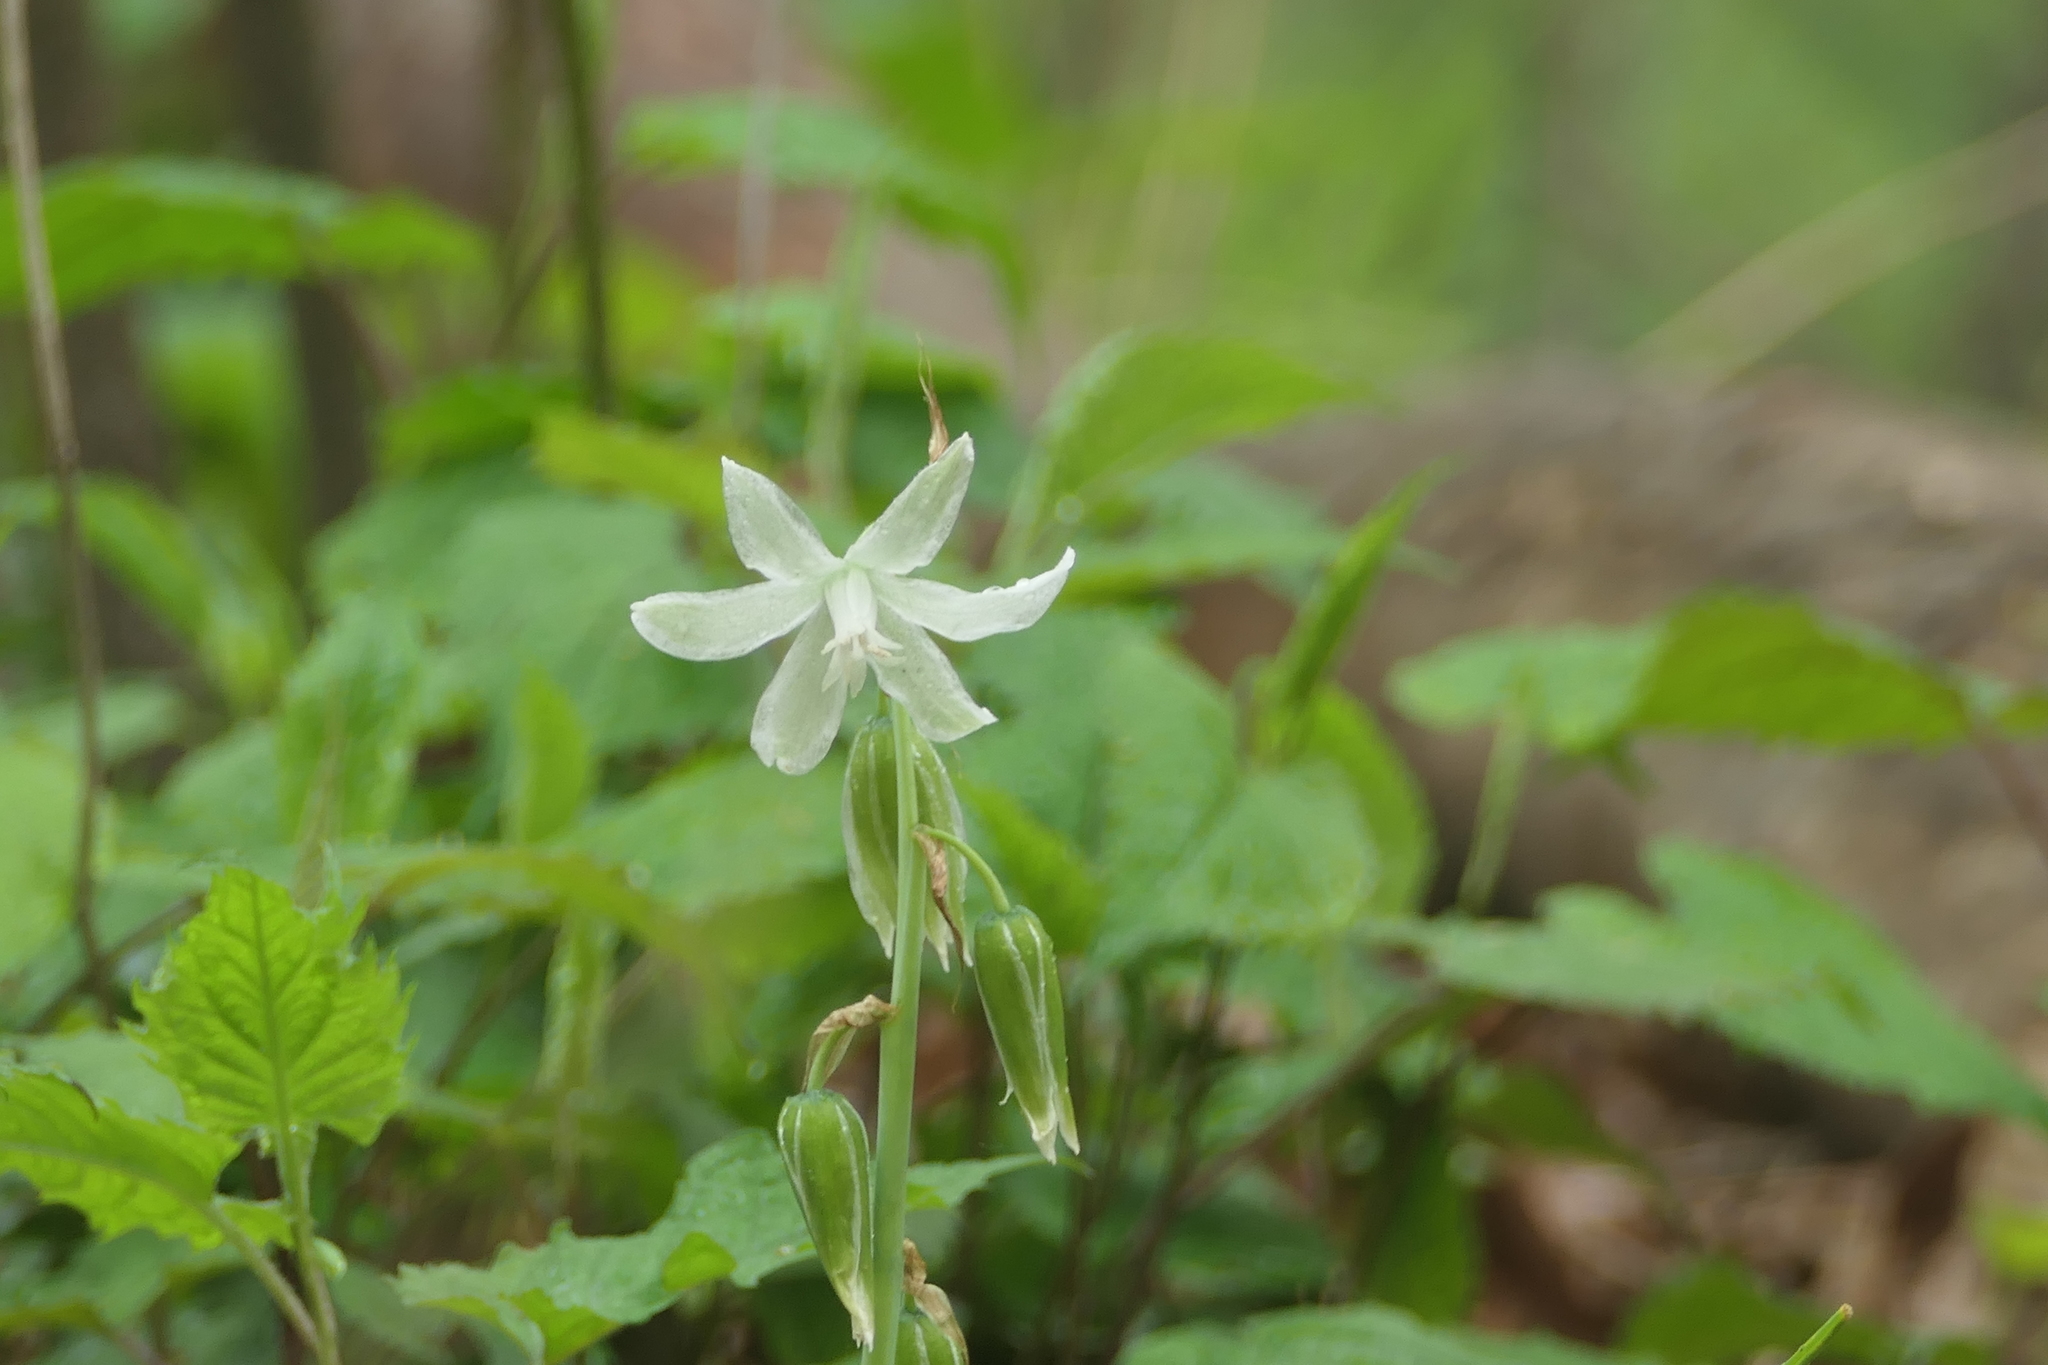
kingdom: Plantae
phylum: Tracheophyta
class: Liliopsida
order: Asparagales
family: Asparagaceae
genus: Ornithogalum
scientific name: Ornithogalum nutans
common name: Drooping star-of-bethlehem
